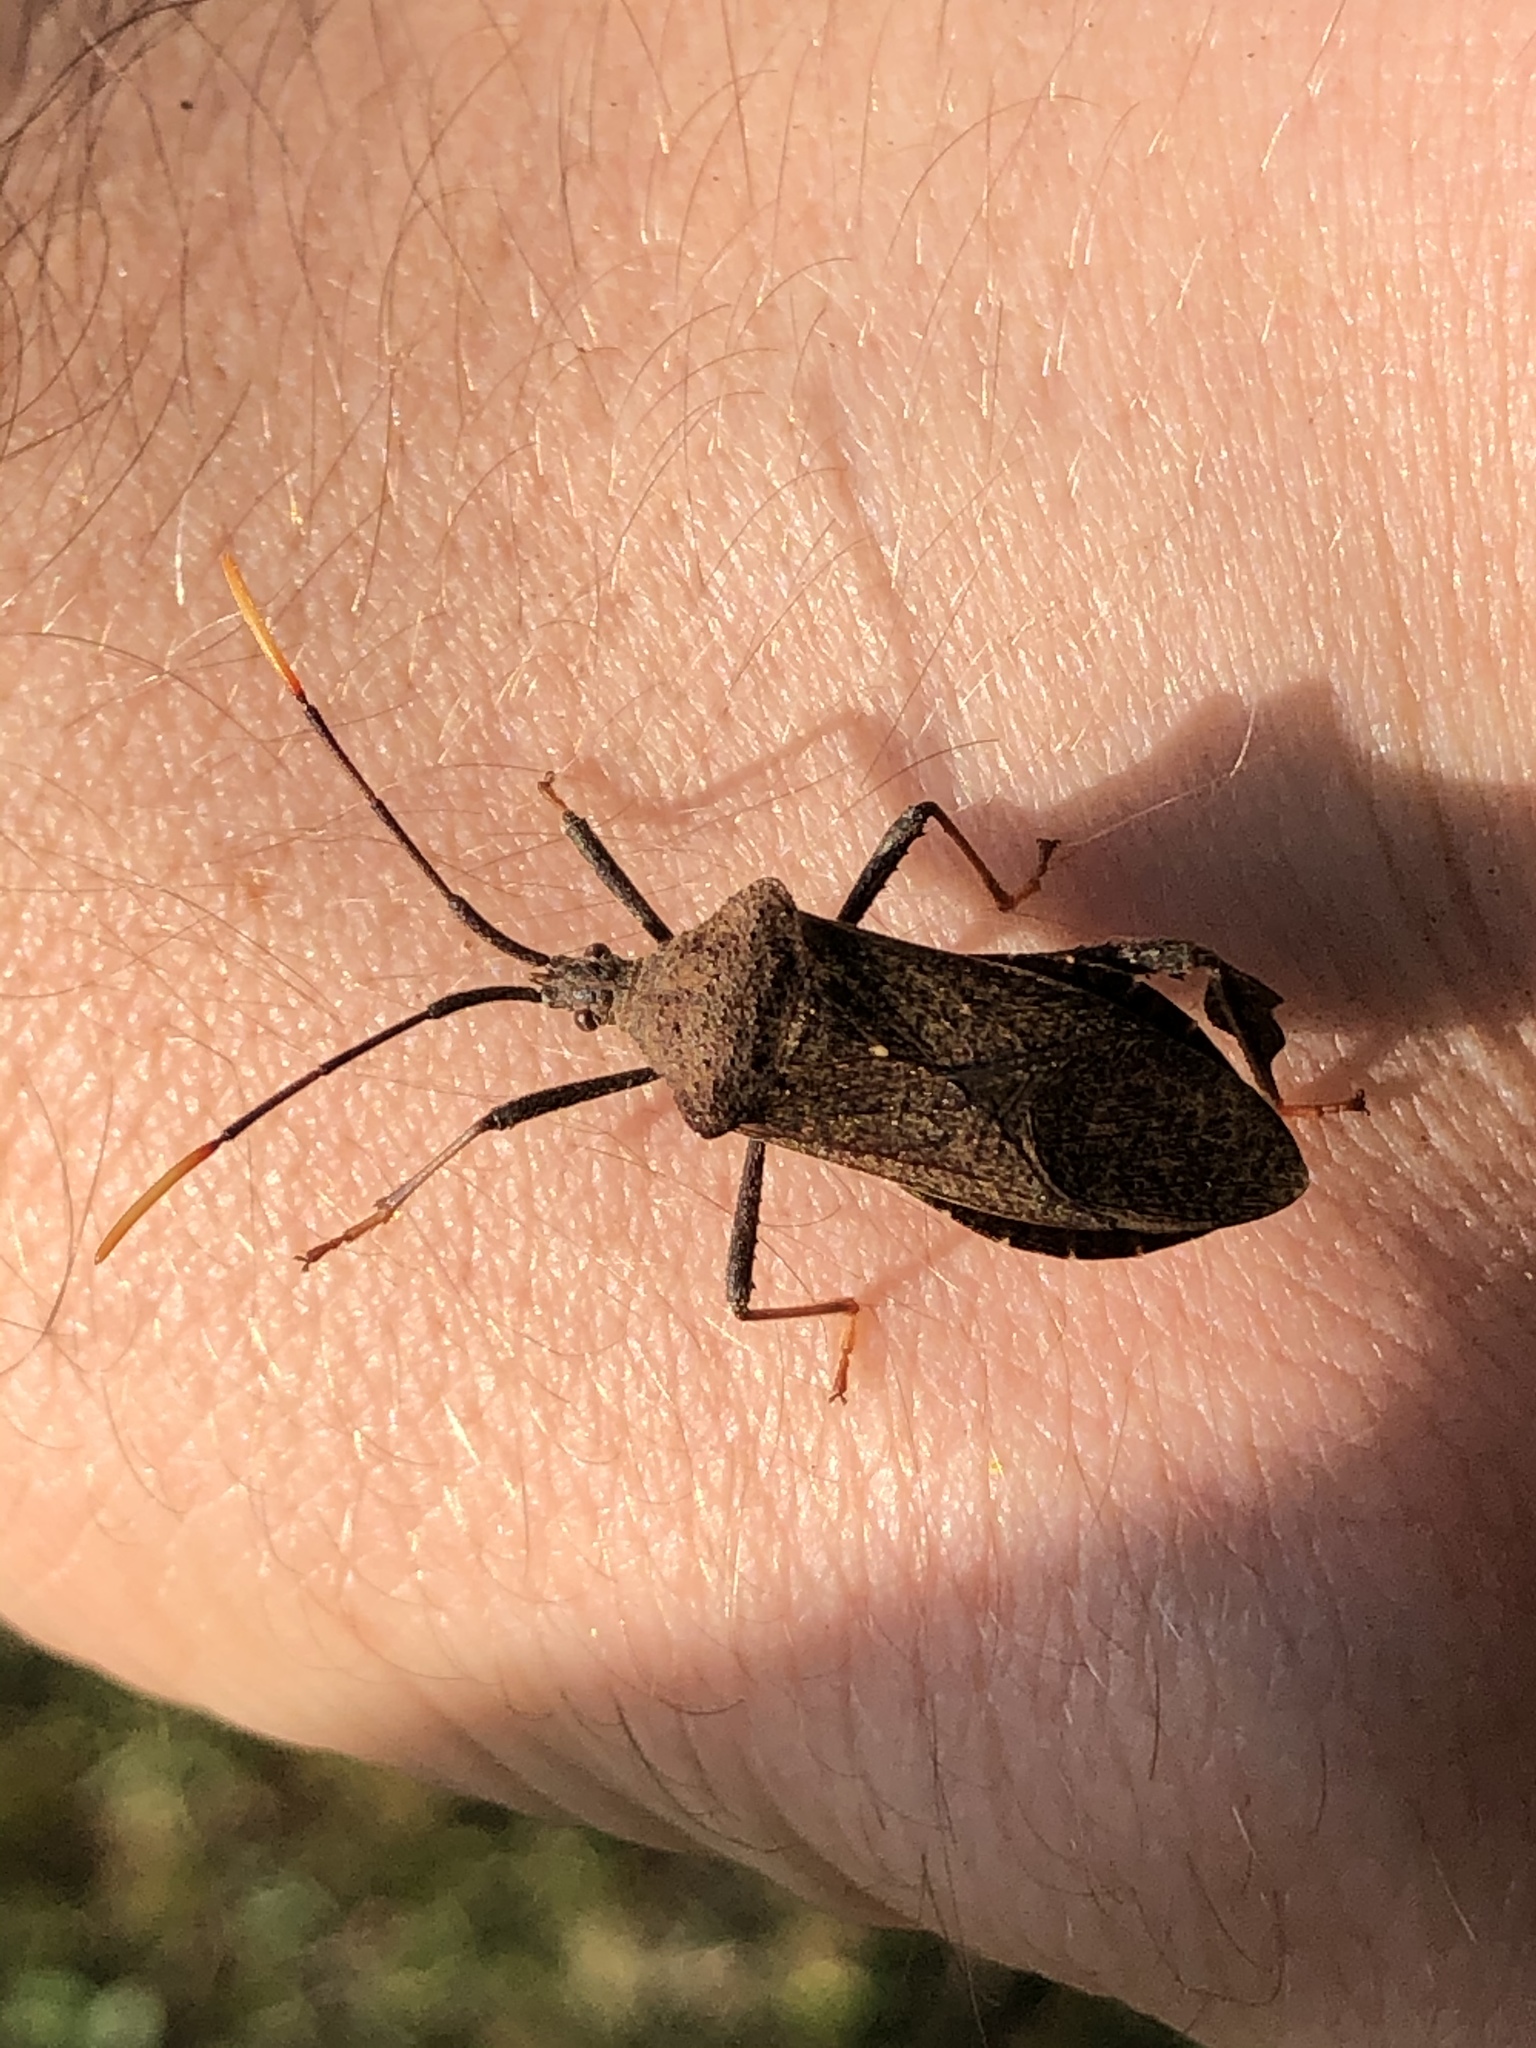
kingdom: Animalia
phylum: Arthropoda
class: Insecta
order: Hemiptera
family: Coreidae
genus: Acanthocephala
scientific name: Acanthocephala terminalis
